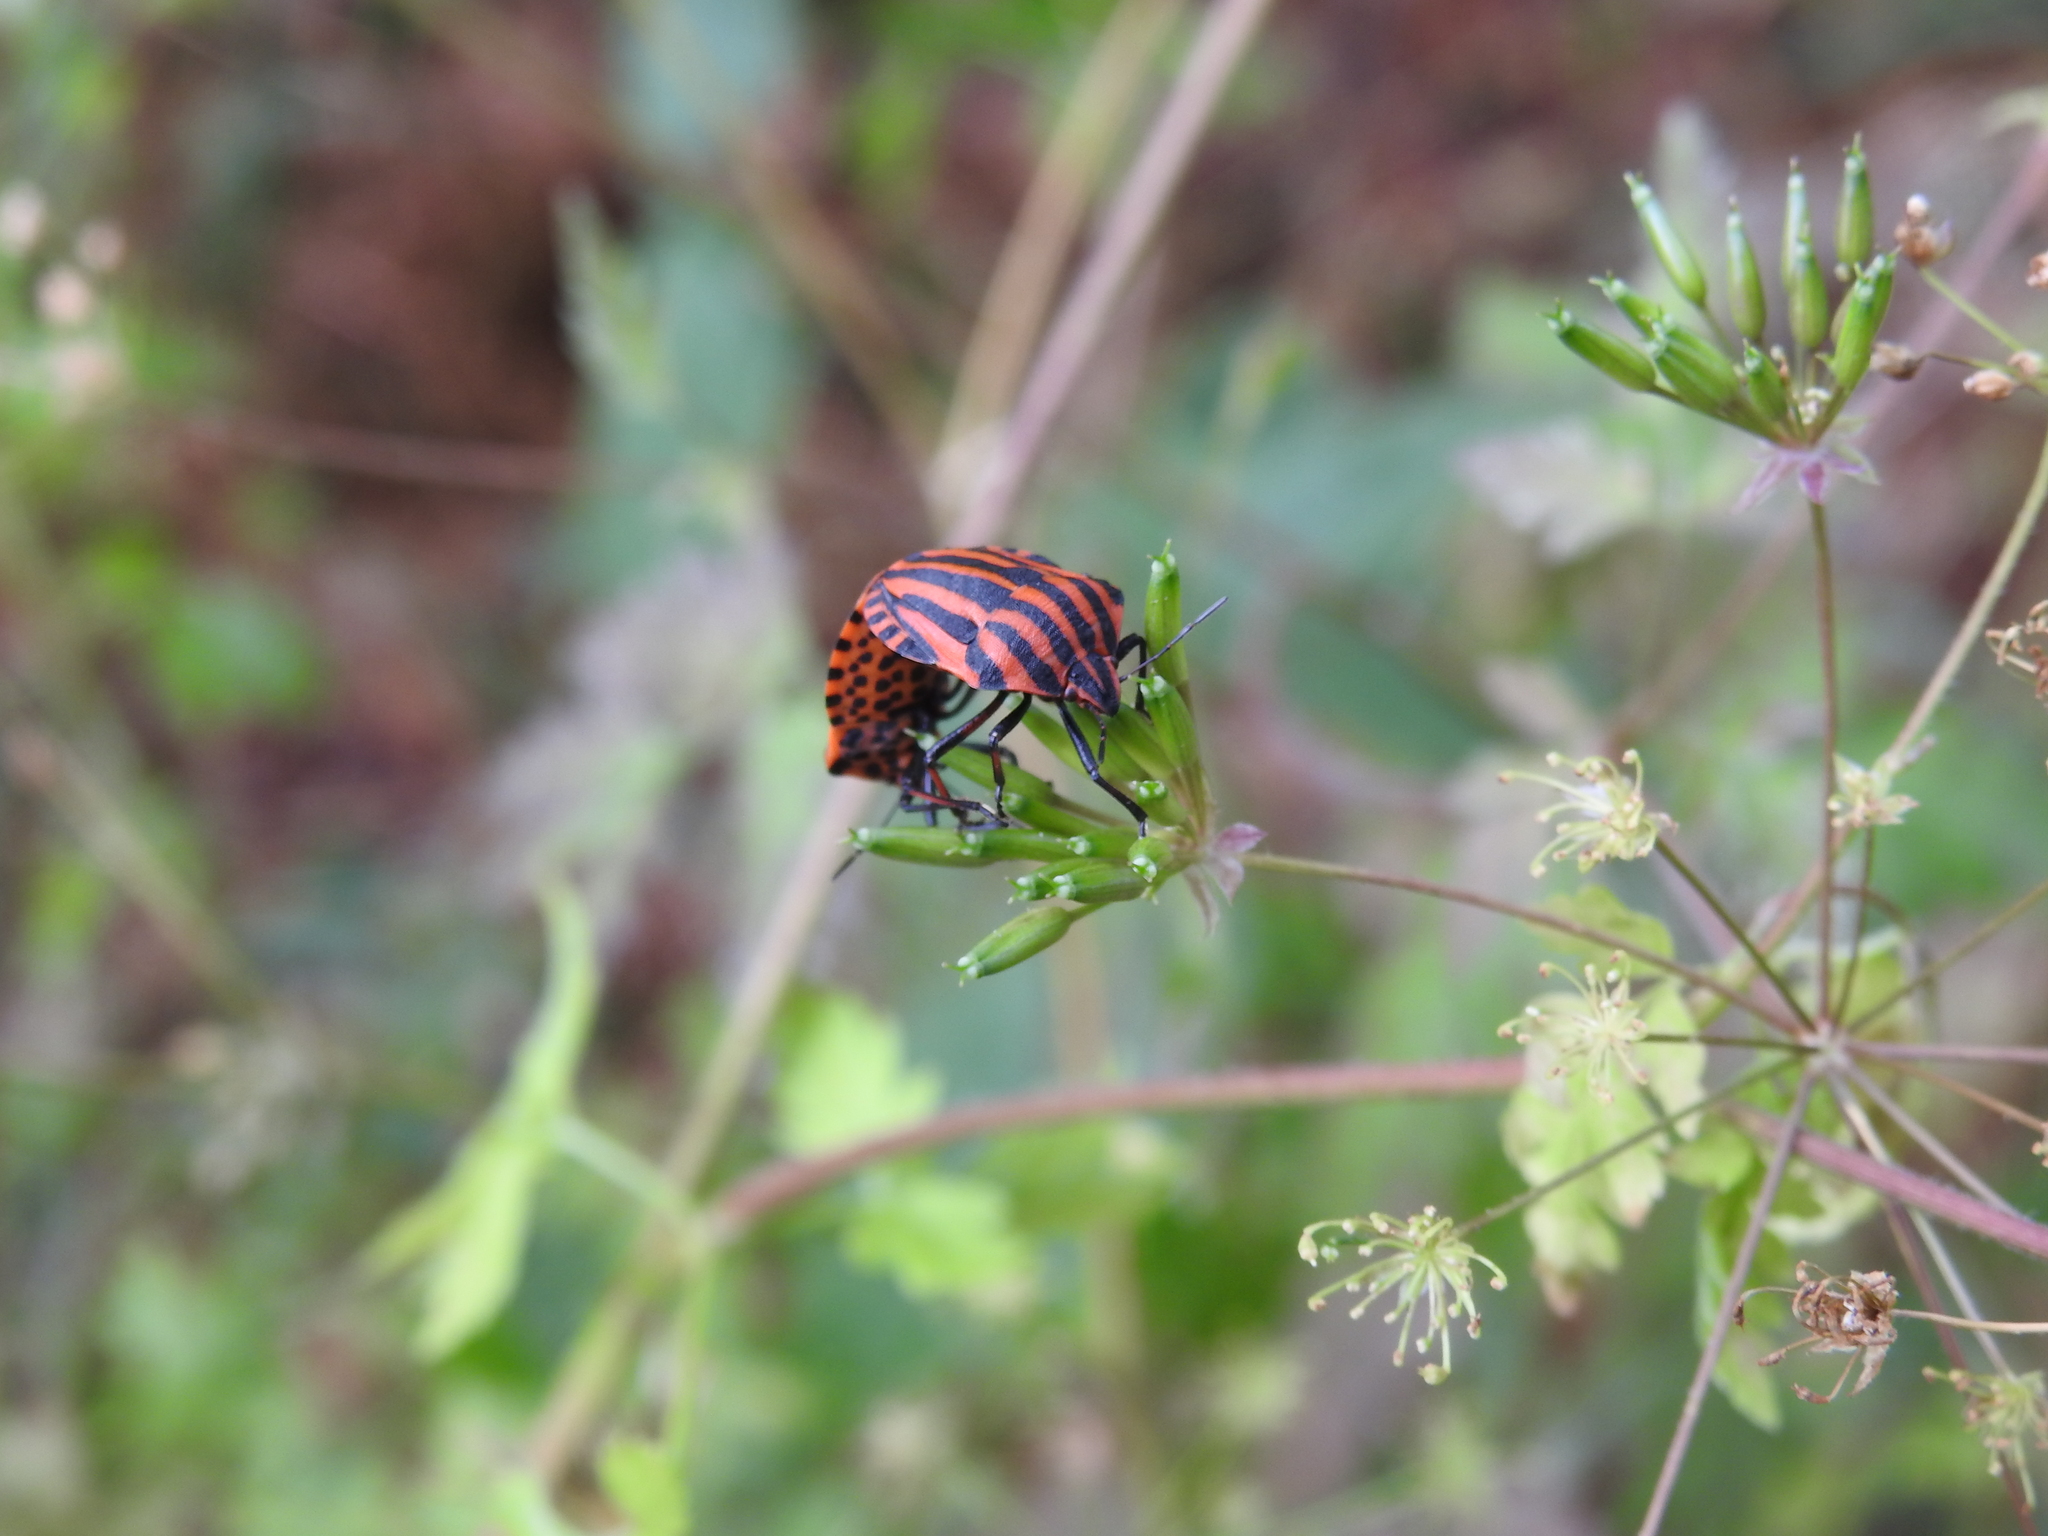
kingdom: Animalia
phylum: Arthropoda
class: Insecta
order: Hemiptera
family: Pentatomidae
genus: Graphosoma
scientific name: Graphosoma italicum
